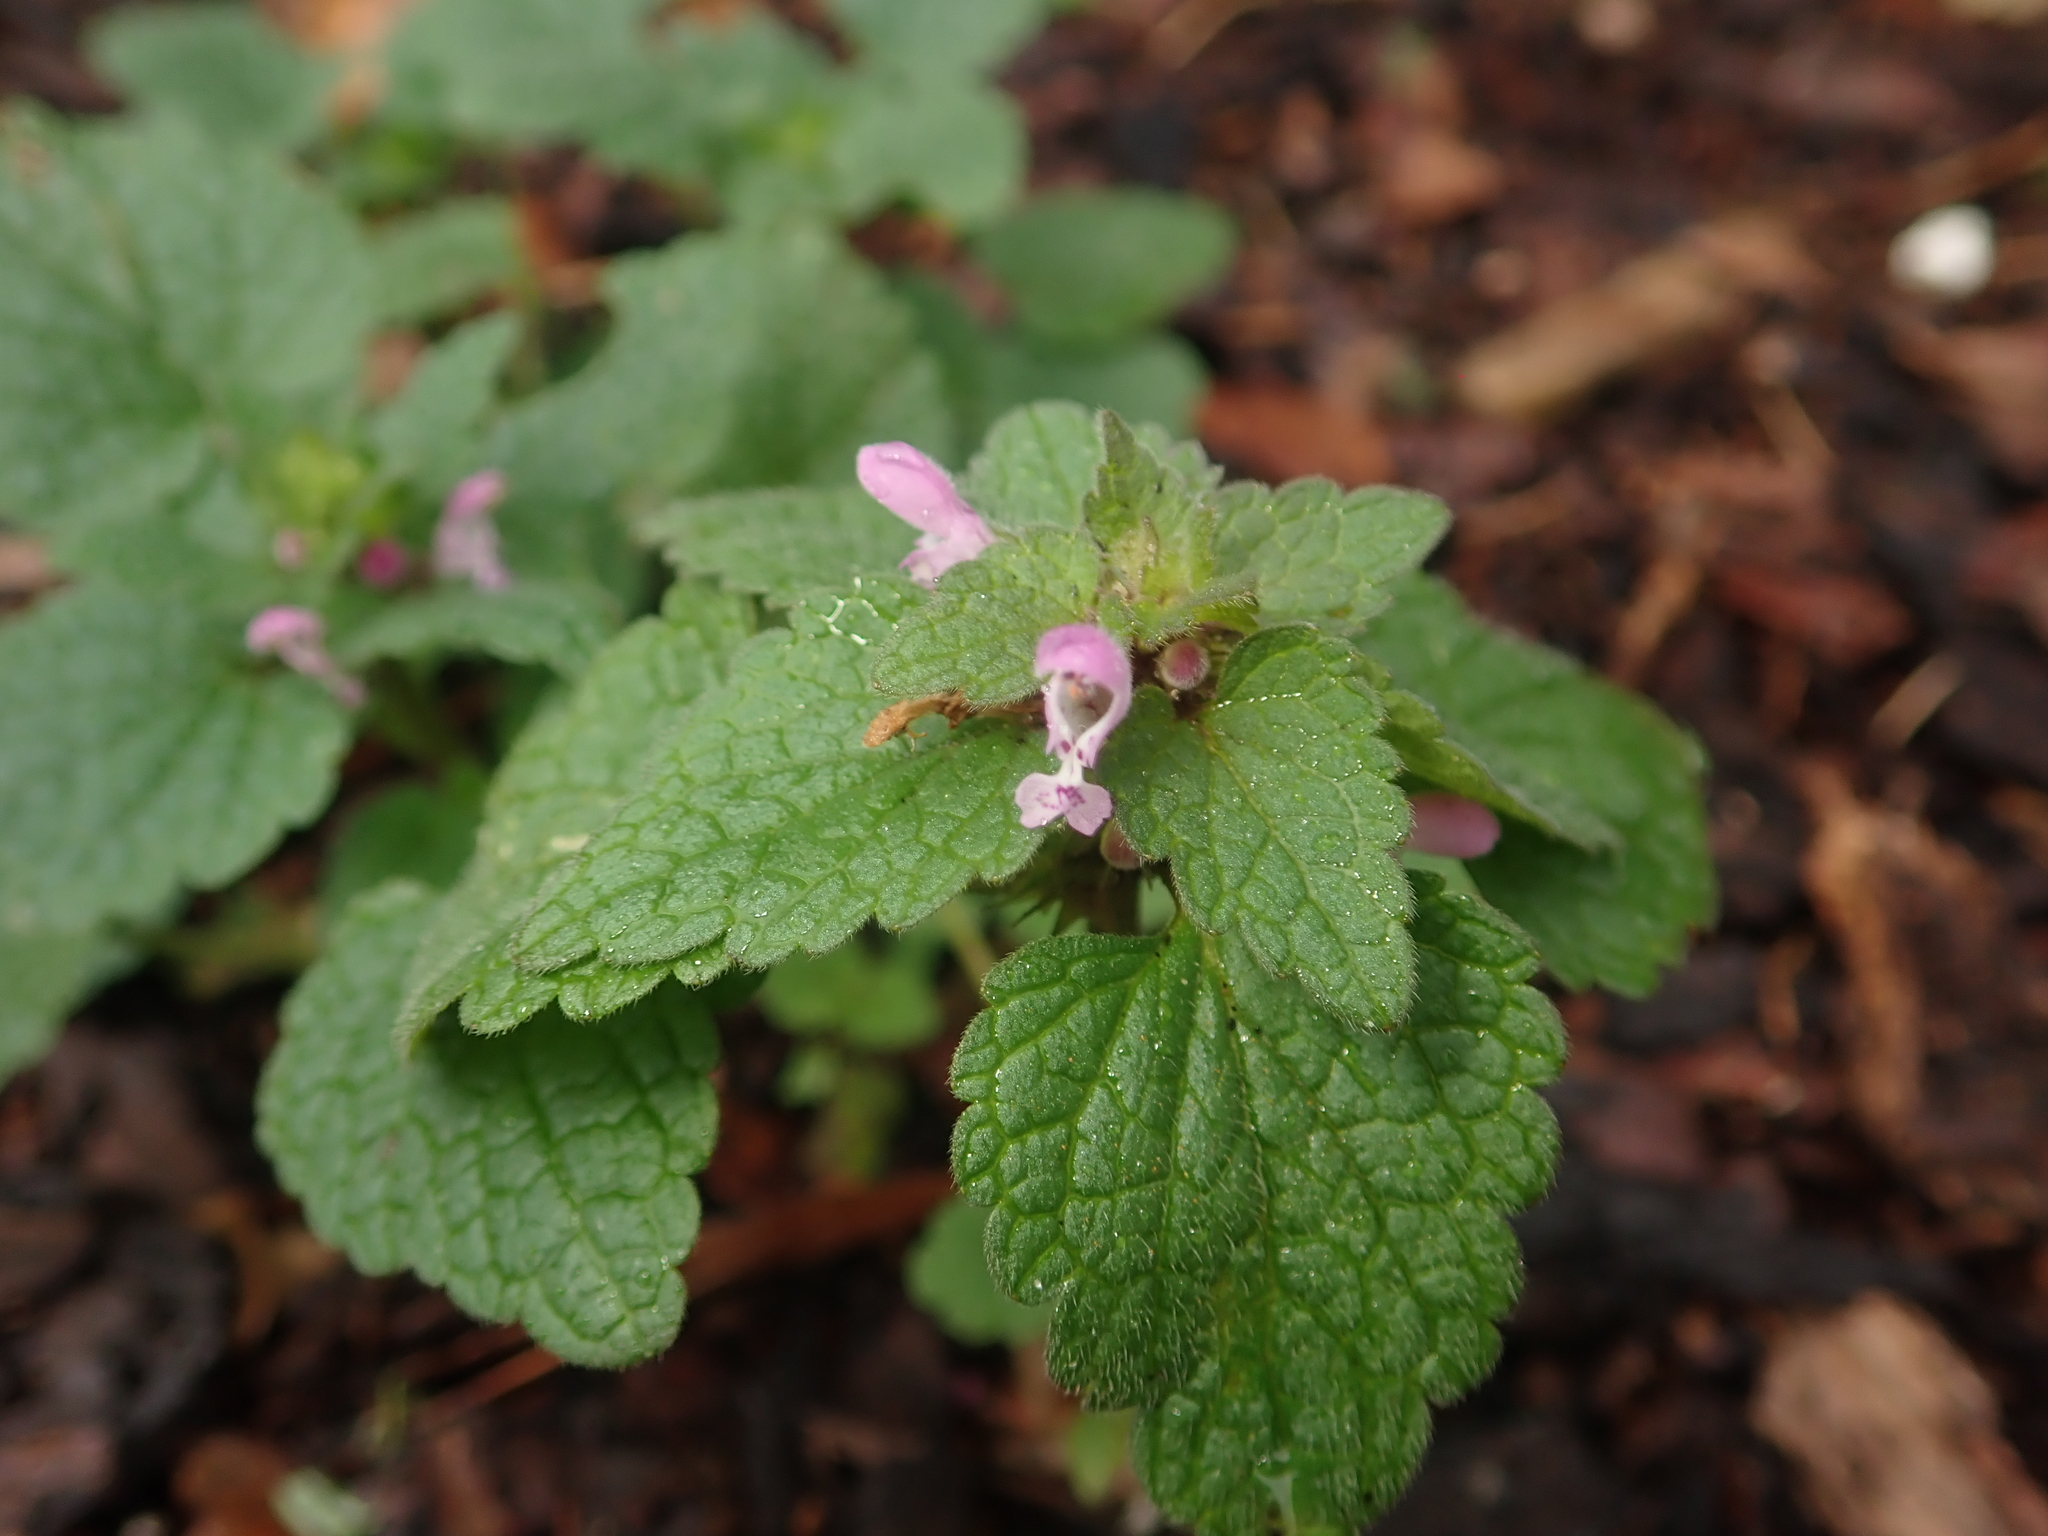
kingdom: Plantae
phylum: Tracheophyta
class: Magnoliopsida
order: Lamiales
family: Lamiaceae
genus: Lamium
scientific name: Lamium purpureum
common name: Red dead-nettle
